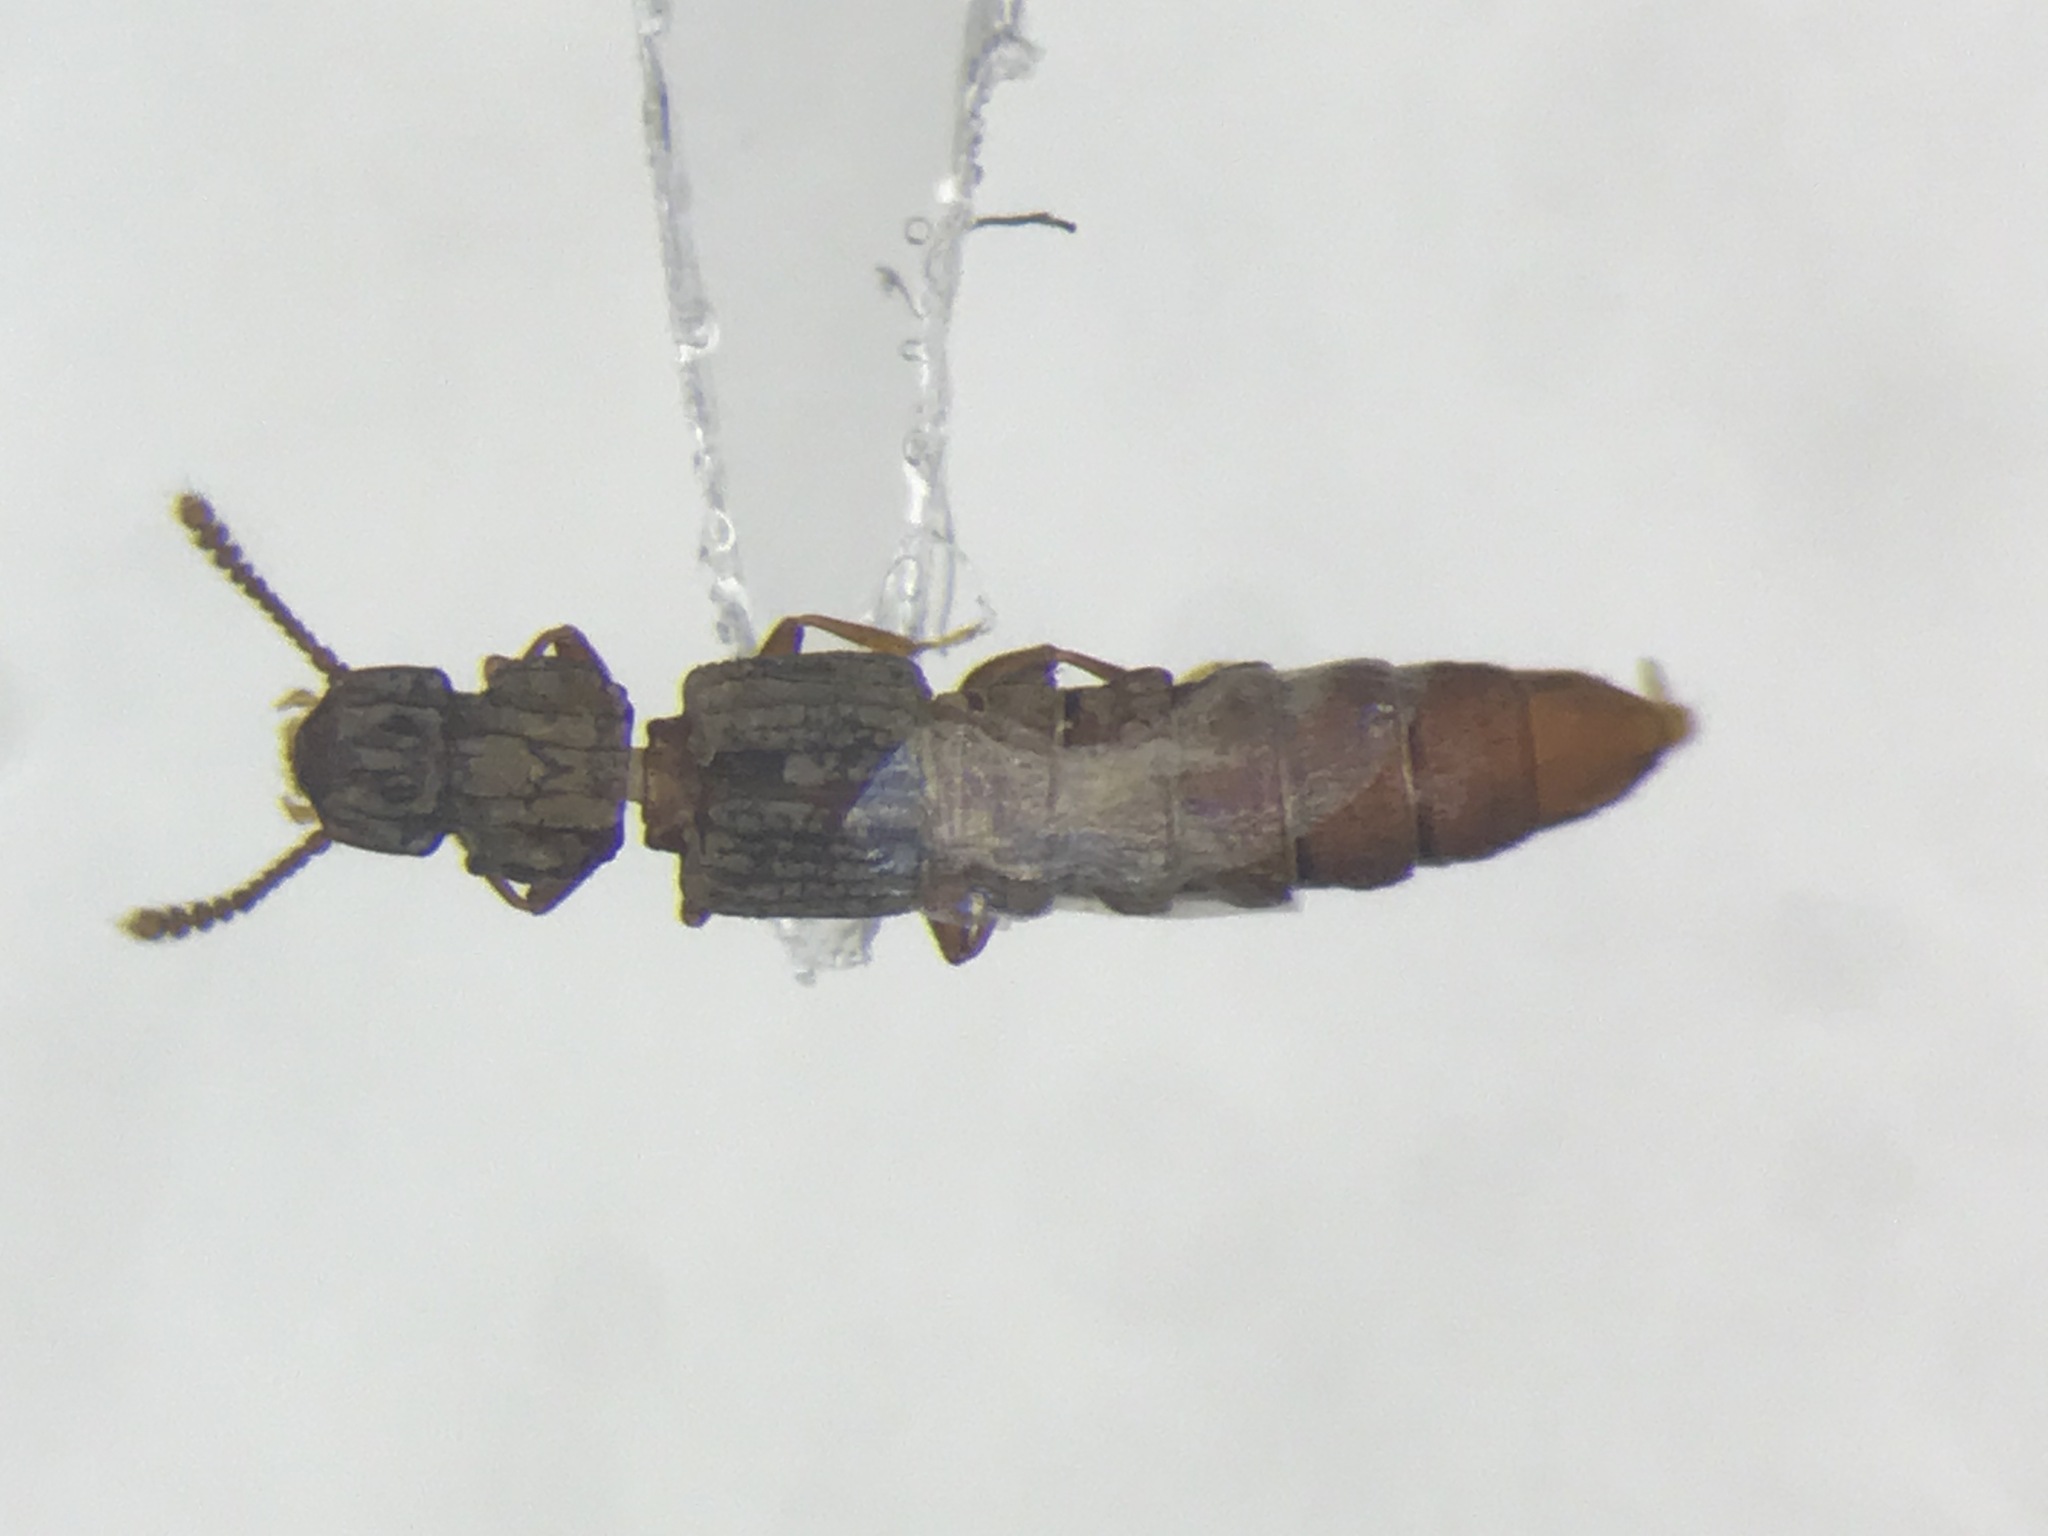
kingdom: Animalia
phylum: Arthropoda
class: Insecta
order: Coleoptera
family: Staphylinidae
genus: Thoracophorus
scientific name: Thoracophorus costalis
